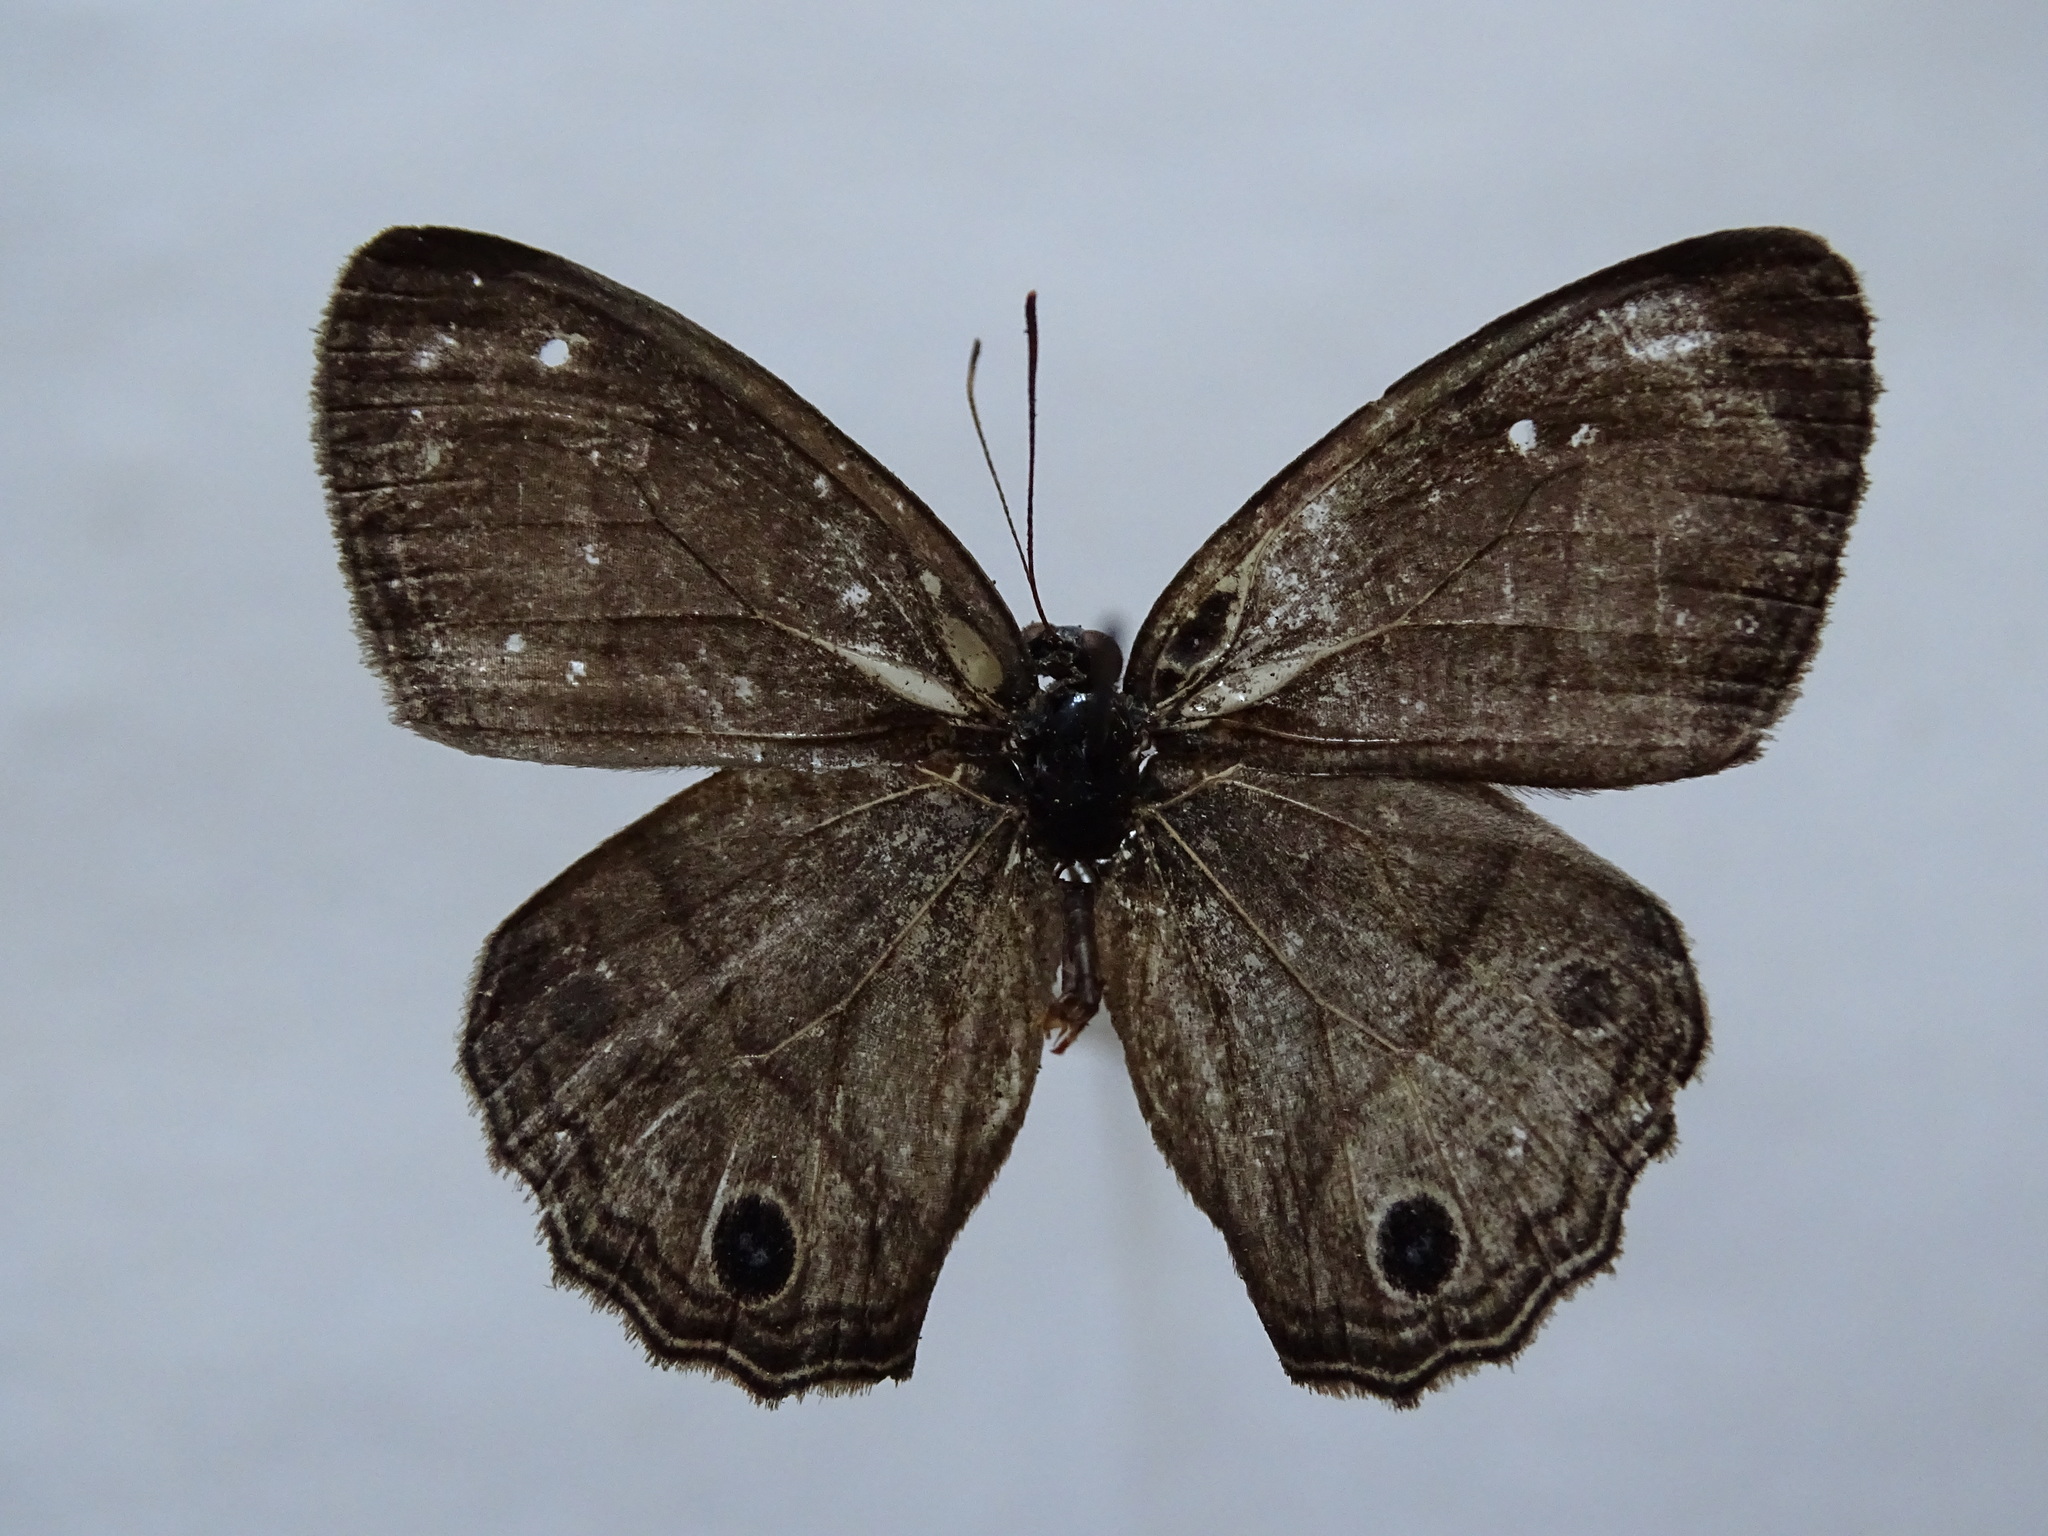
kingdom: Animalia
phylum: Arthropoda
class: Insecta
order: Lepidoptera
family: Nymphalidae
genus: Vareuptychia
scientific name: Vareuptychia similis
